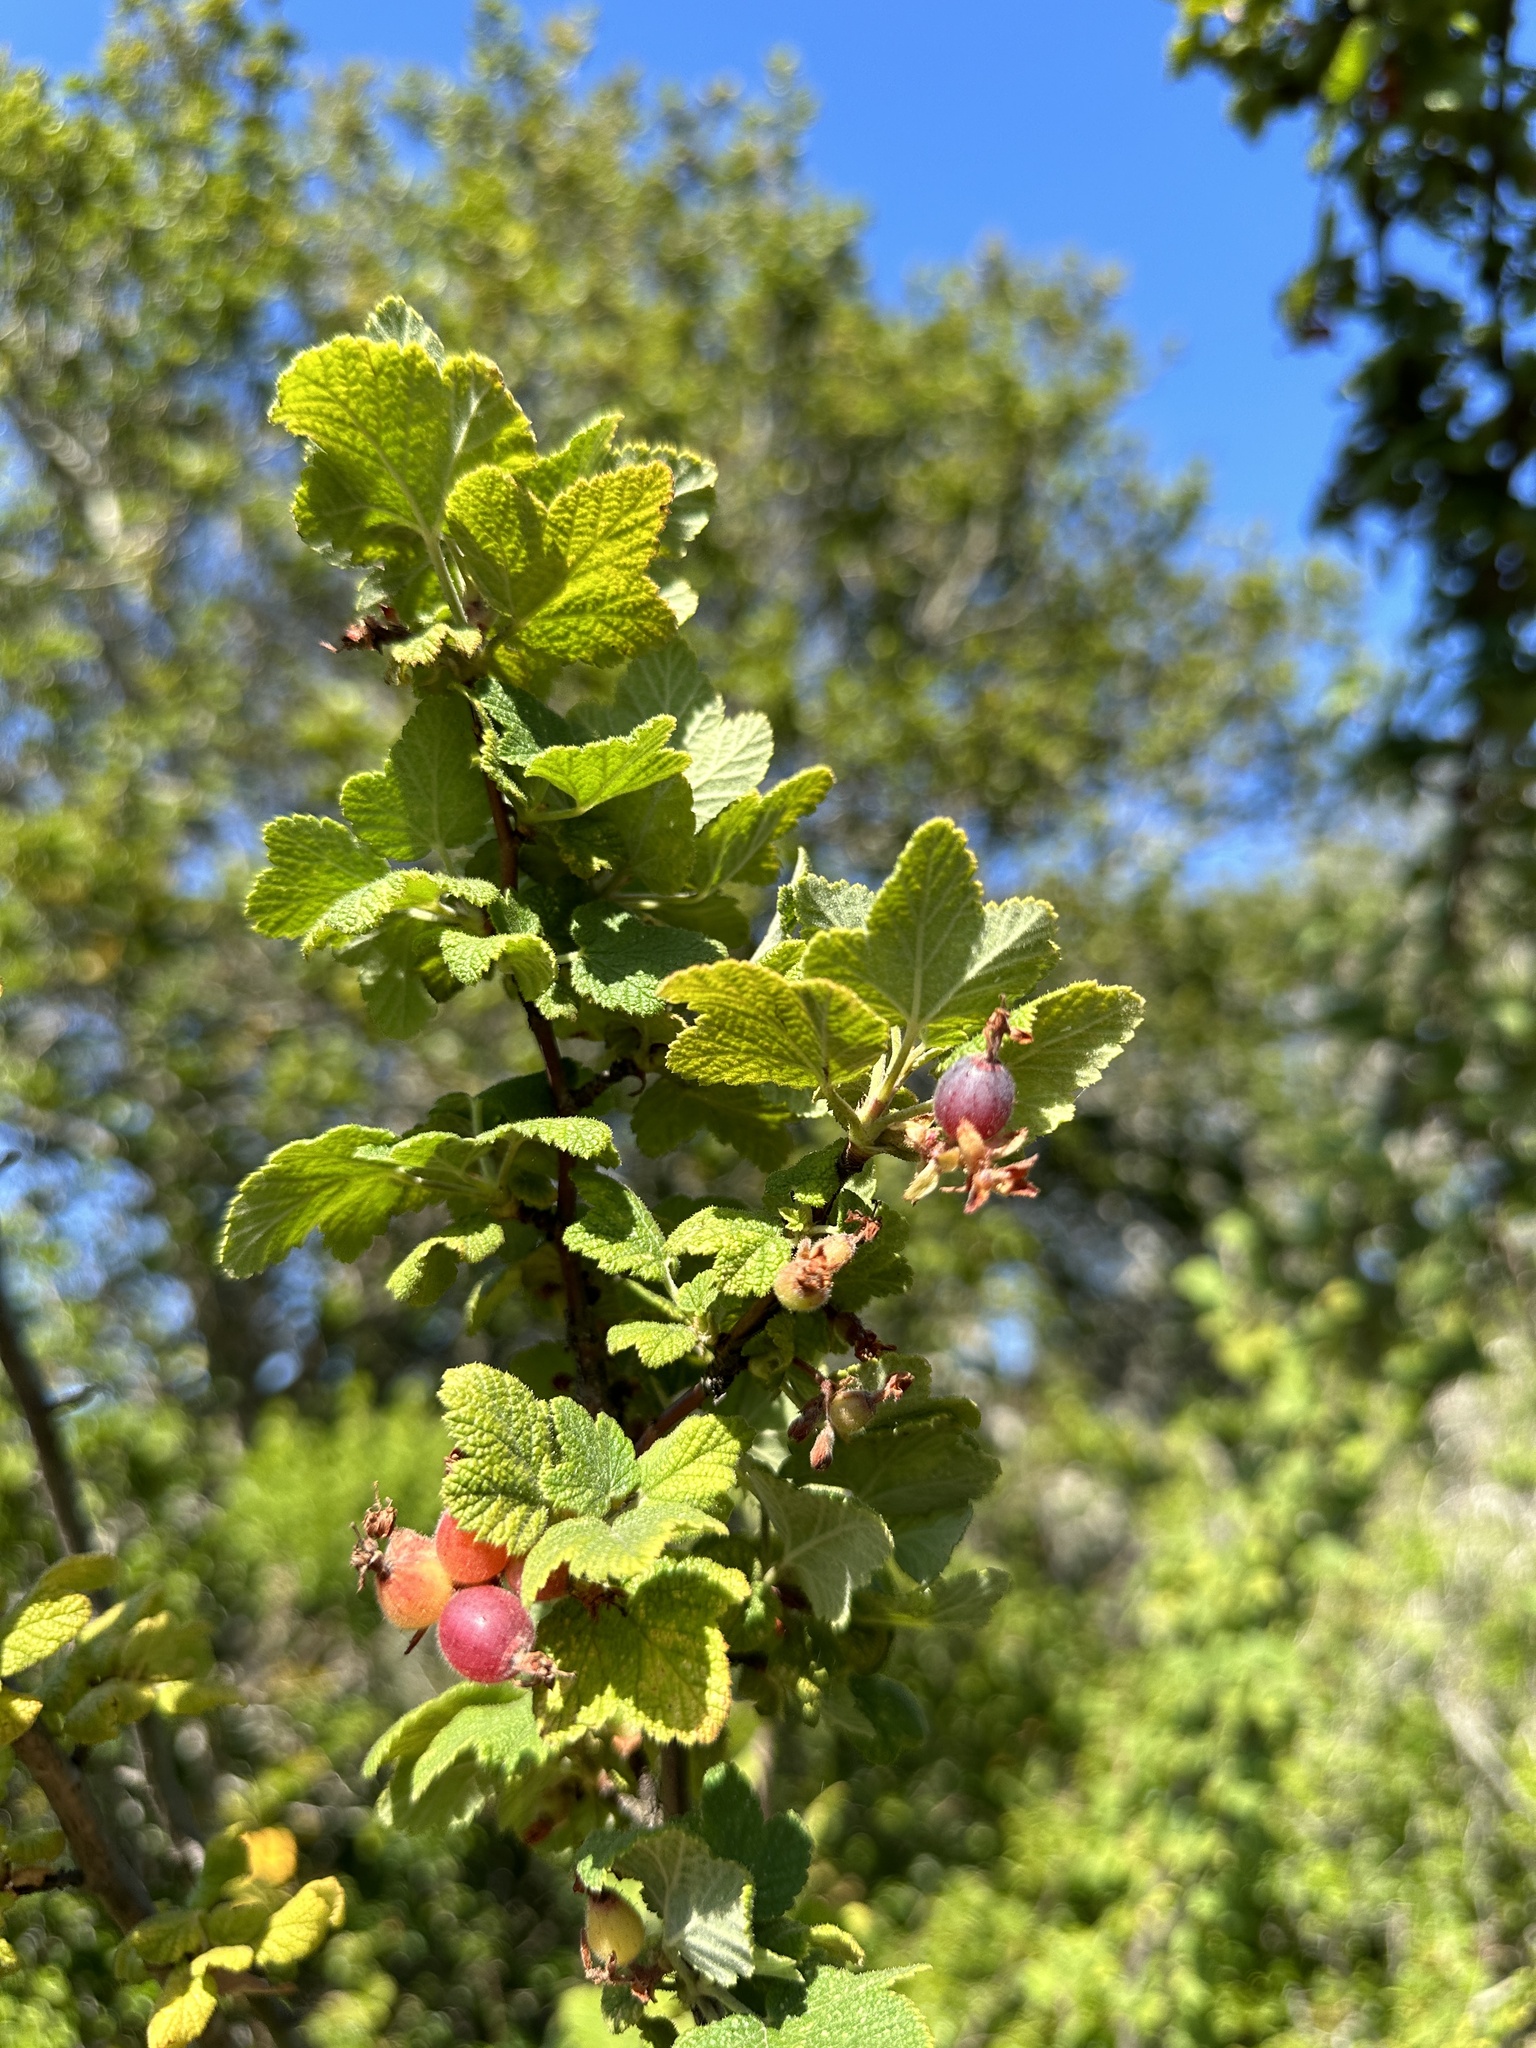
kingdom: Plantae
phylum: Tracheophyta
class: Magnoliopsida
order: Saxifragales
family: Grossulariaceae
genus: Ribes
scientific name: Ribes malvaceum
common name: Chaparral currant
